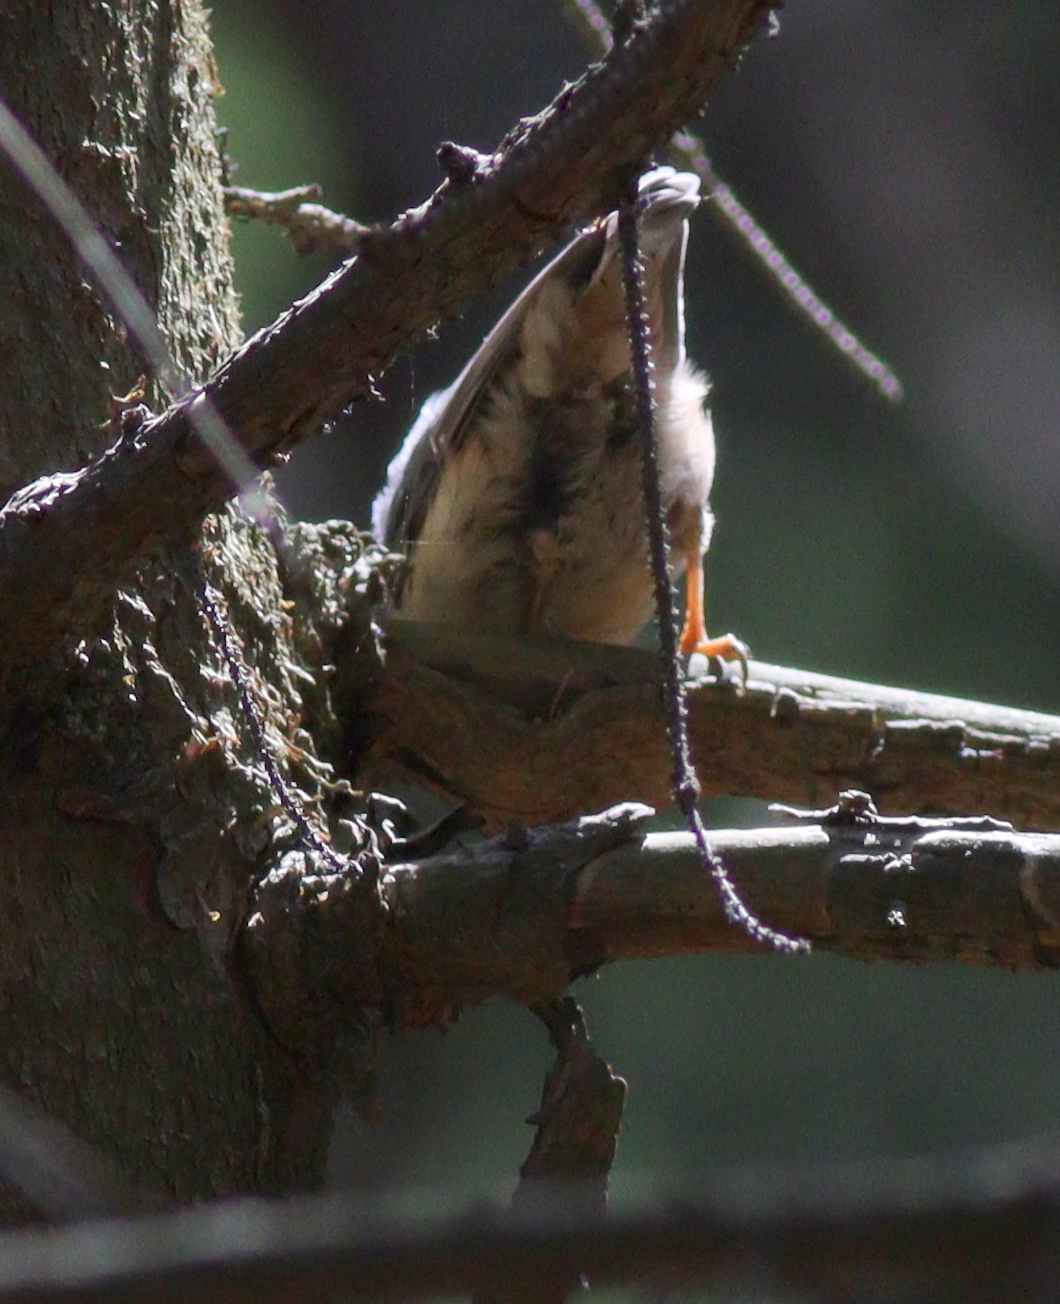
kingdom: Animalia
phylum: Chordata
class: Aves
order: Passeriformes
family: Sittidae
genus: Sitta
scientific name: Sitta europaea
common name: Eurasian nuthatch
